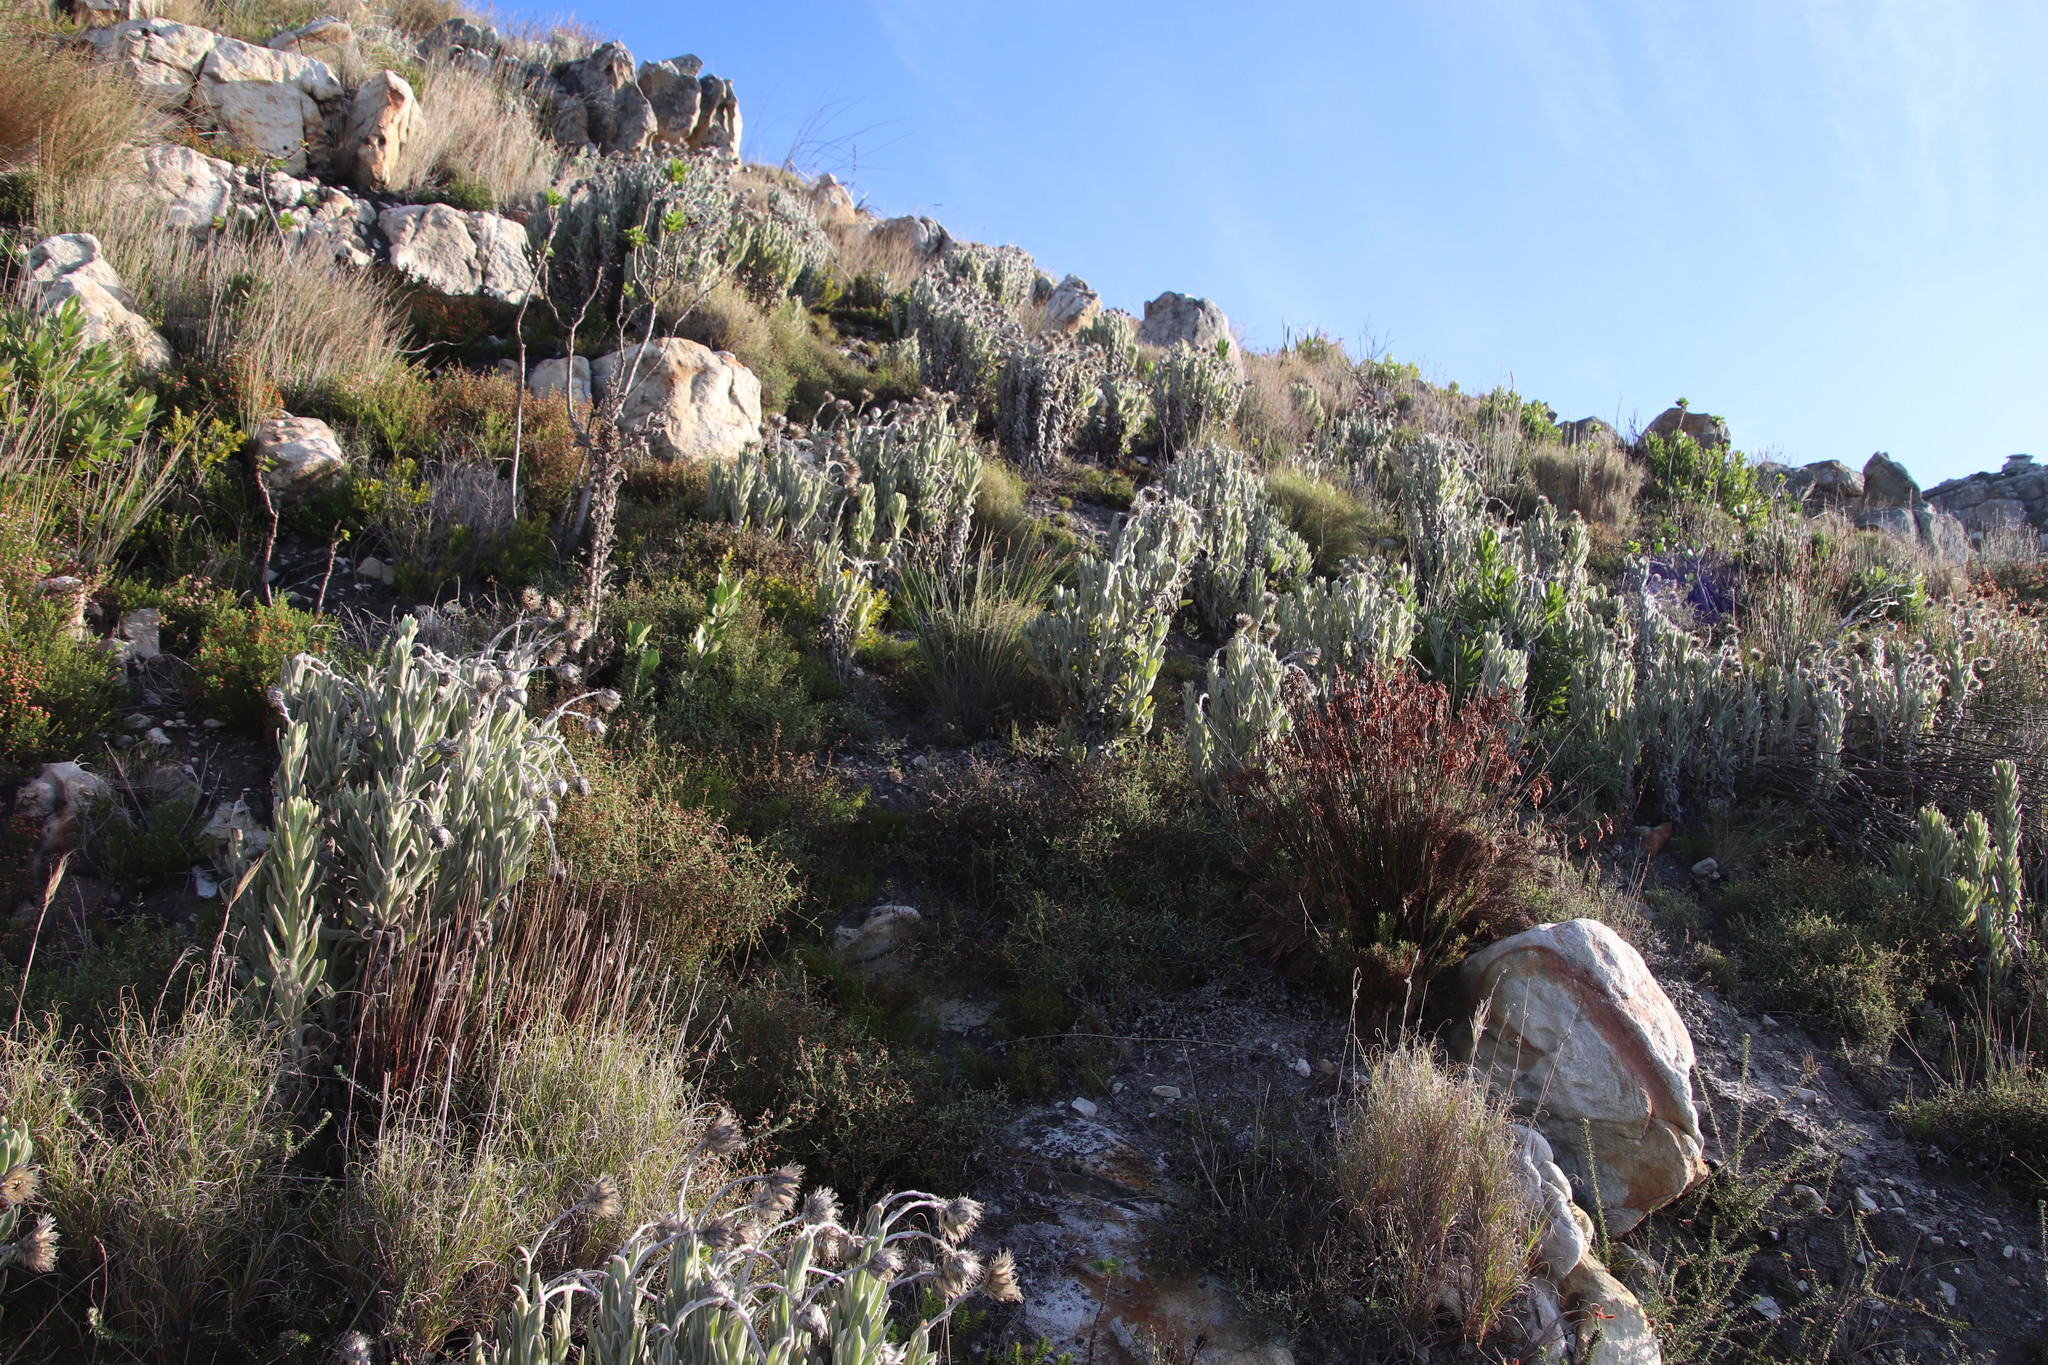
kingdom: Plantae
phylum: Tracheophyta
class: Magnoliopsida
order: Asterales
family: Asteraceae
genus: Syncarpha
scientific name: Syncarpha vestita
